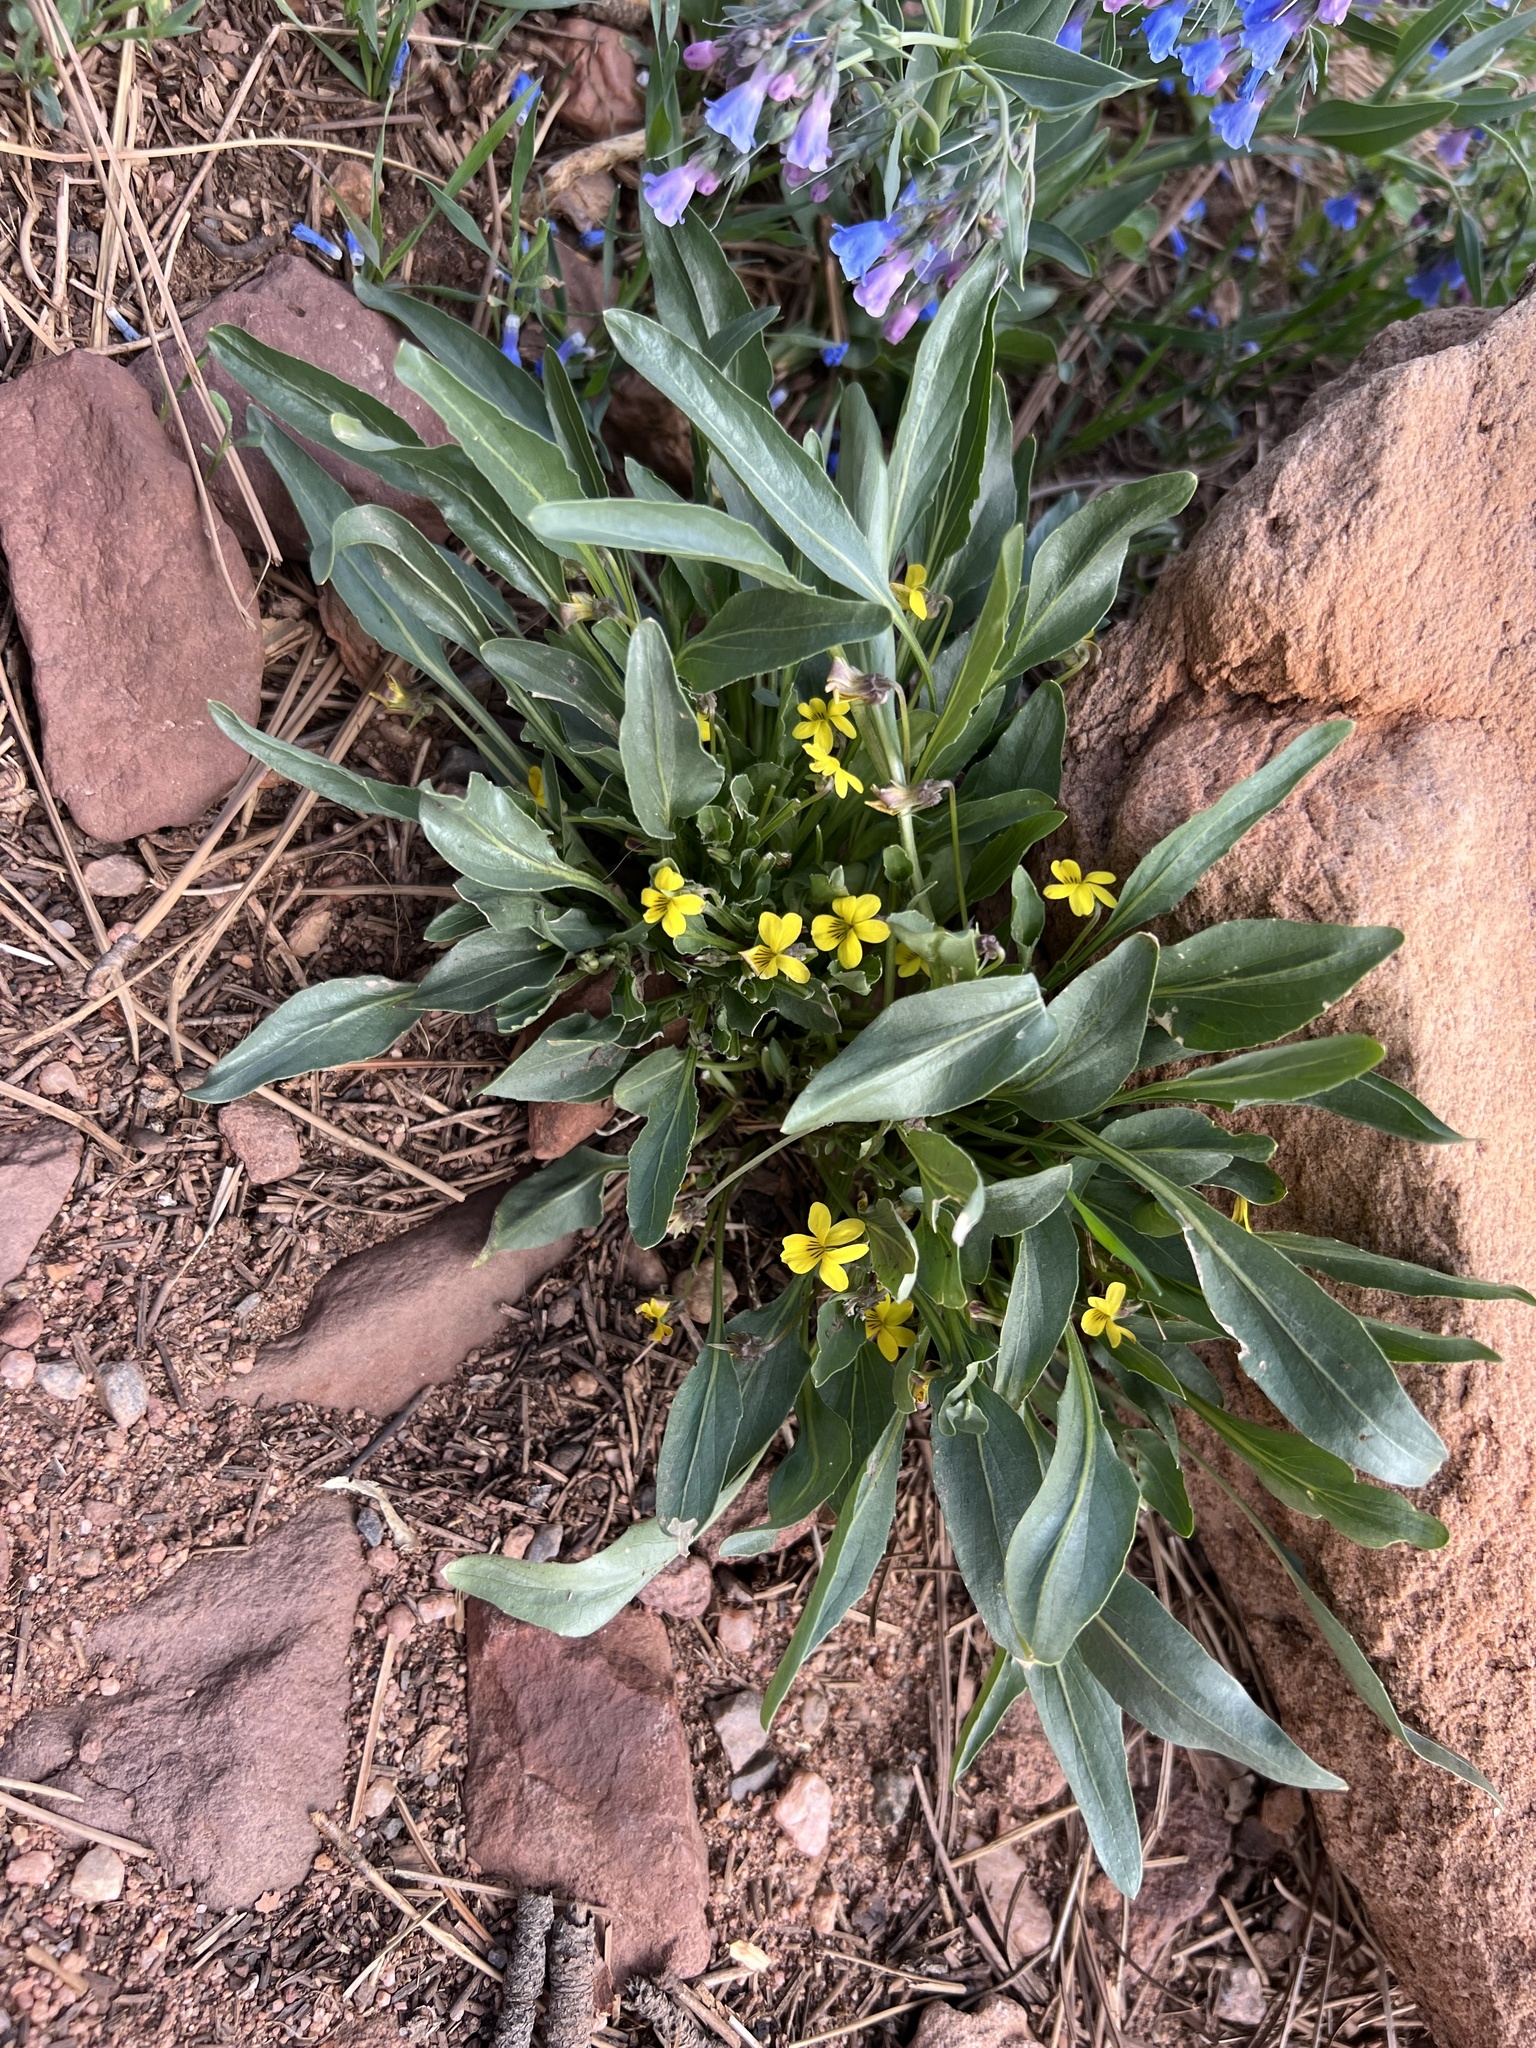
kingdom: Plantae
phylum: Tracheophyta
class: Magnoliopsida
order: Malpighiales
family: Violaceae
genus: Viola
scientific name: Viola nuttallii
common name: Yellow prairie violet
